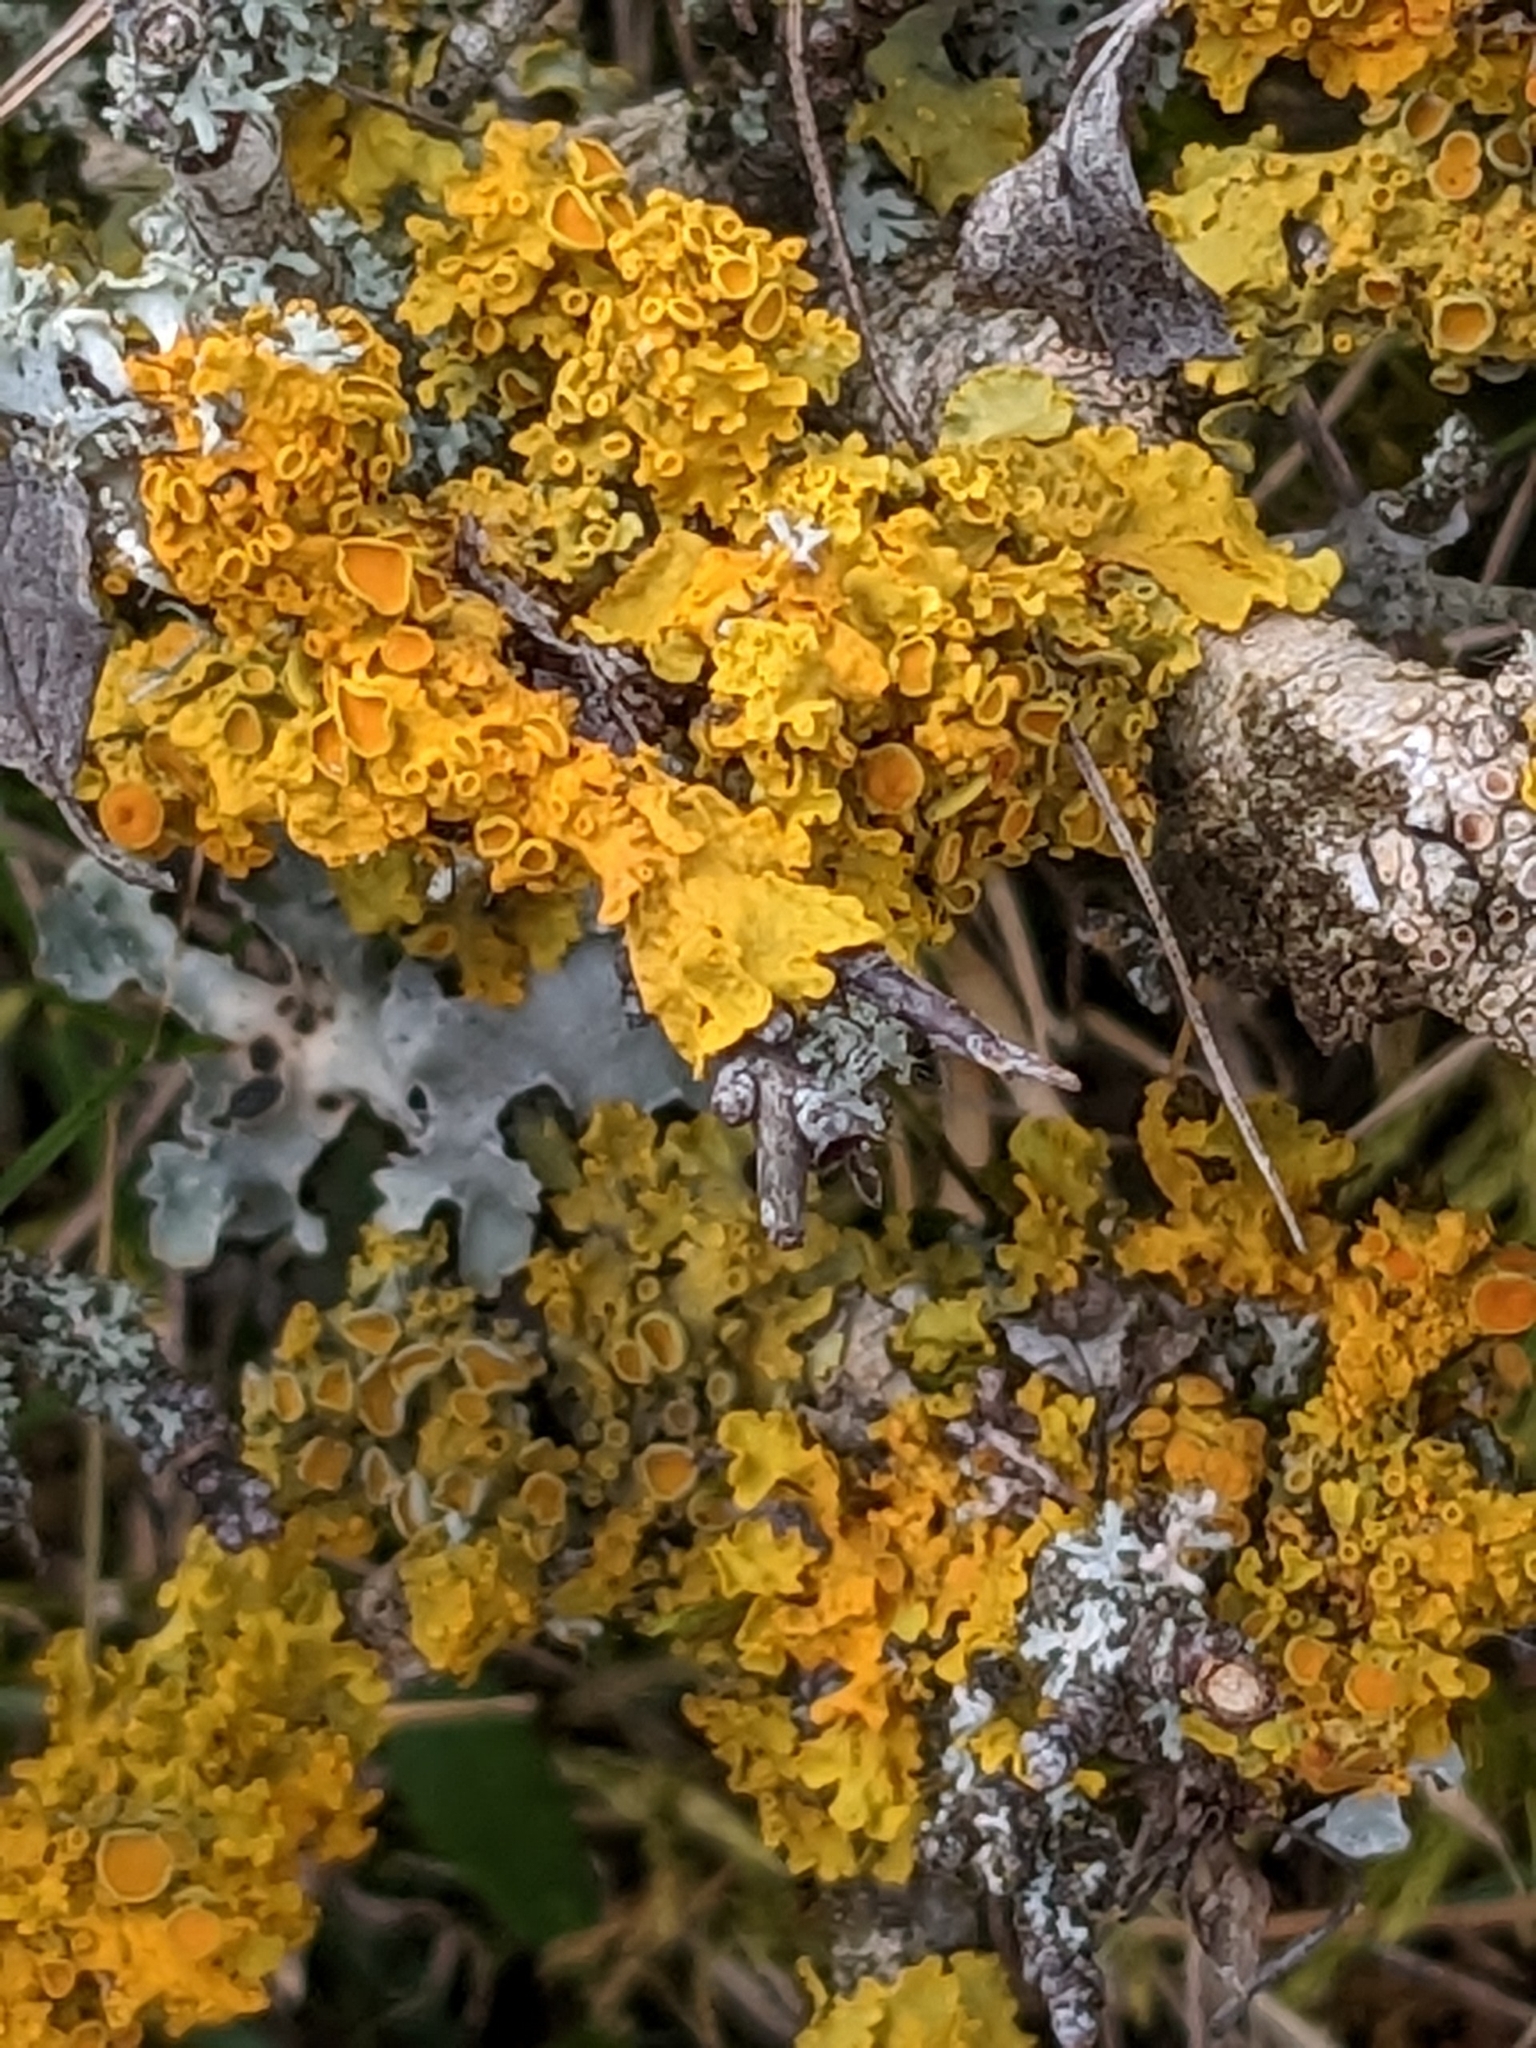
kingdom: Fungi
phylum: Ascomycota
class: Lecanoromycetes
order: Teloschistales
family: Teloschistaceae
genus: Xanthoria
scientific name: Xanthoria parietina
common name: Common orange lichen
